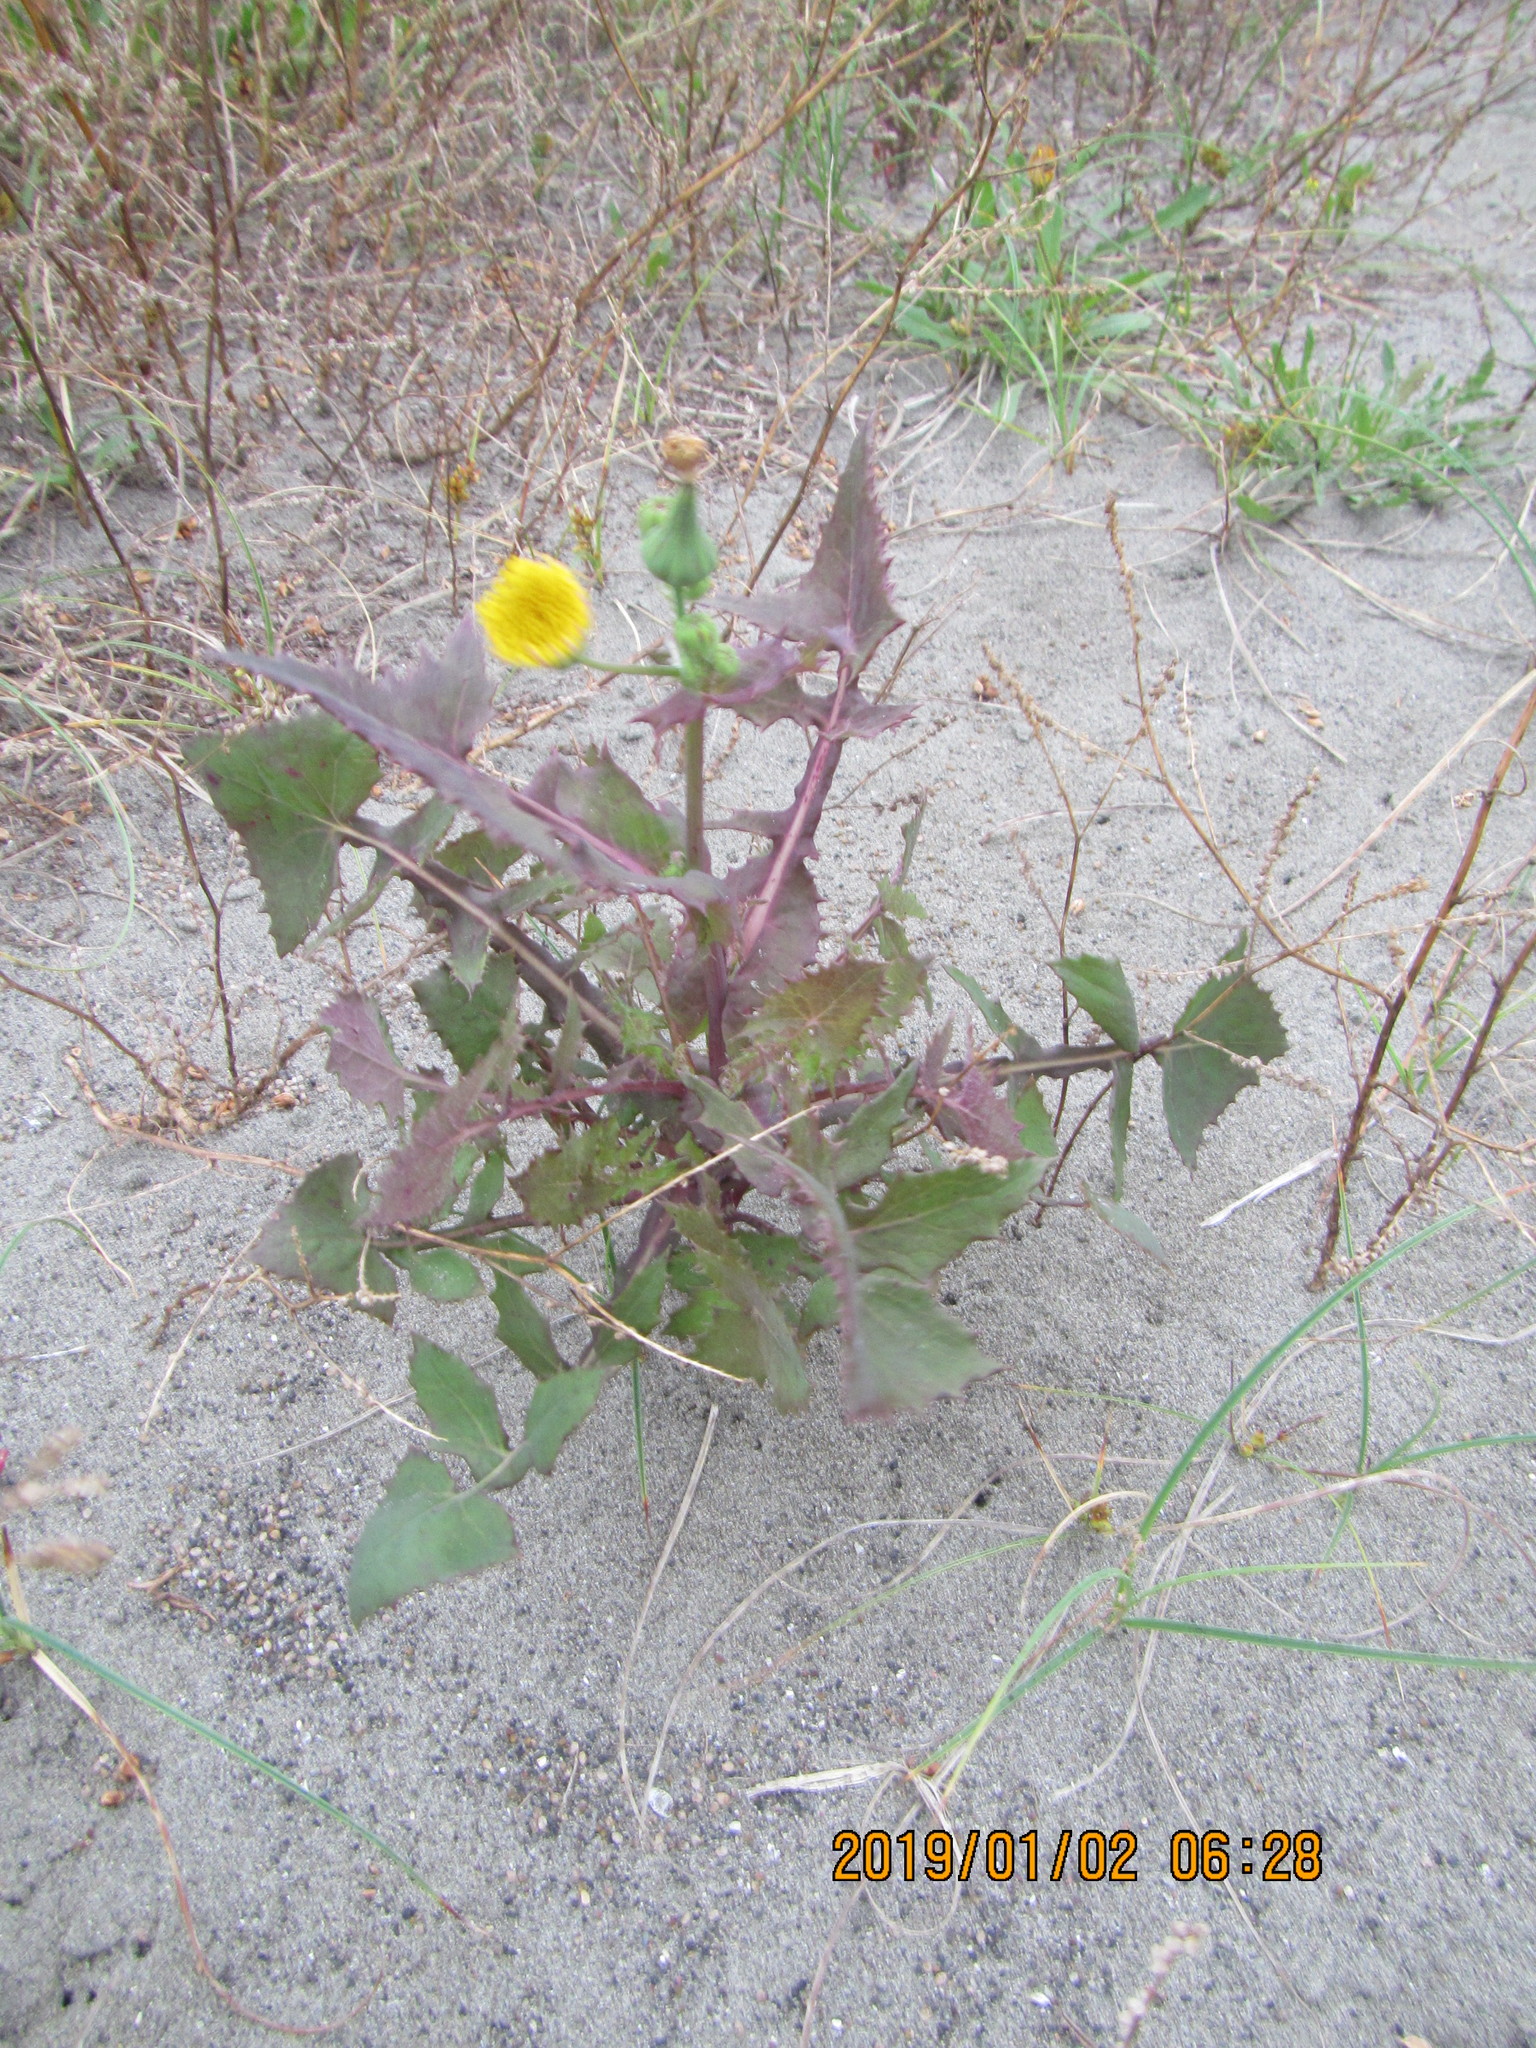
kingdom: Plantae
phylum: Tracheophyta
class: Magnoliopsida
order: Asterales
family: Asteraceae
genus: Sonchus
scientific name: Sonchus oleraceus
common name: Common sowthistle
